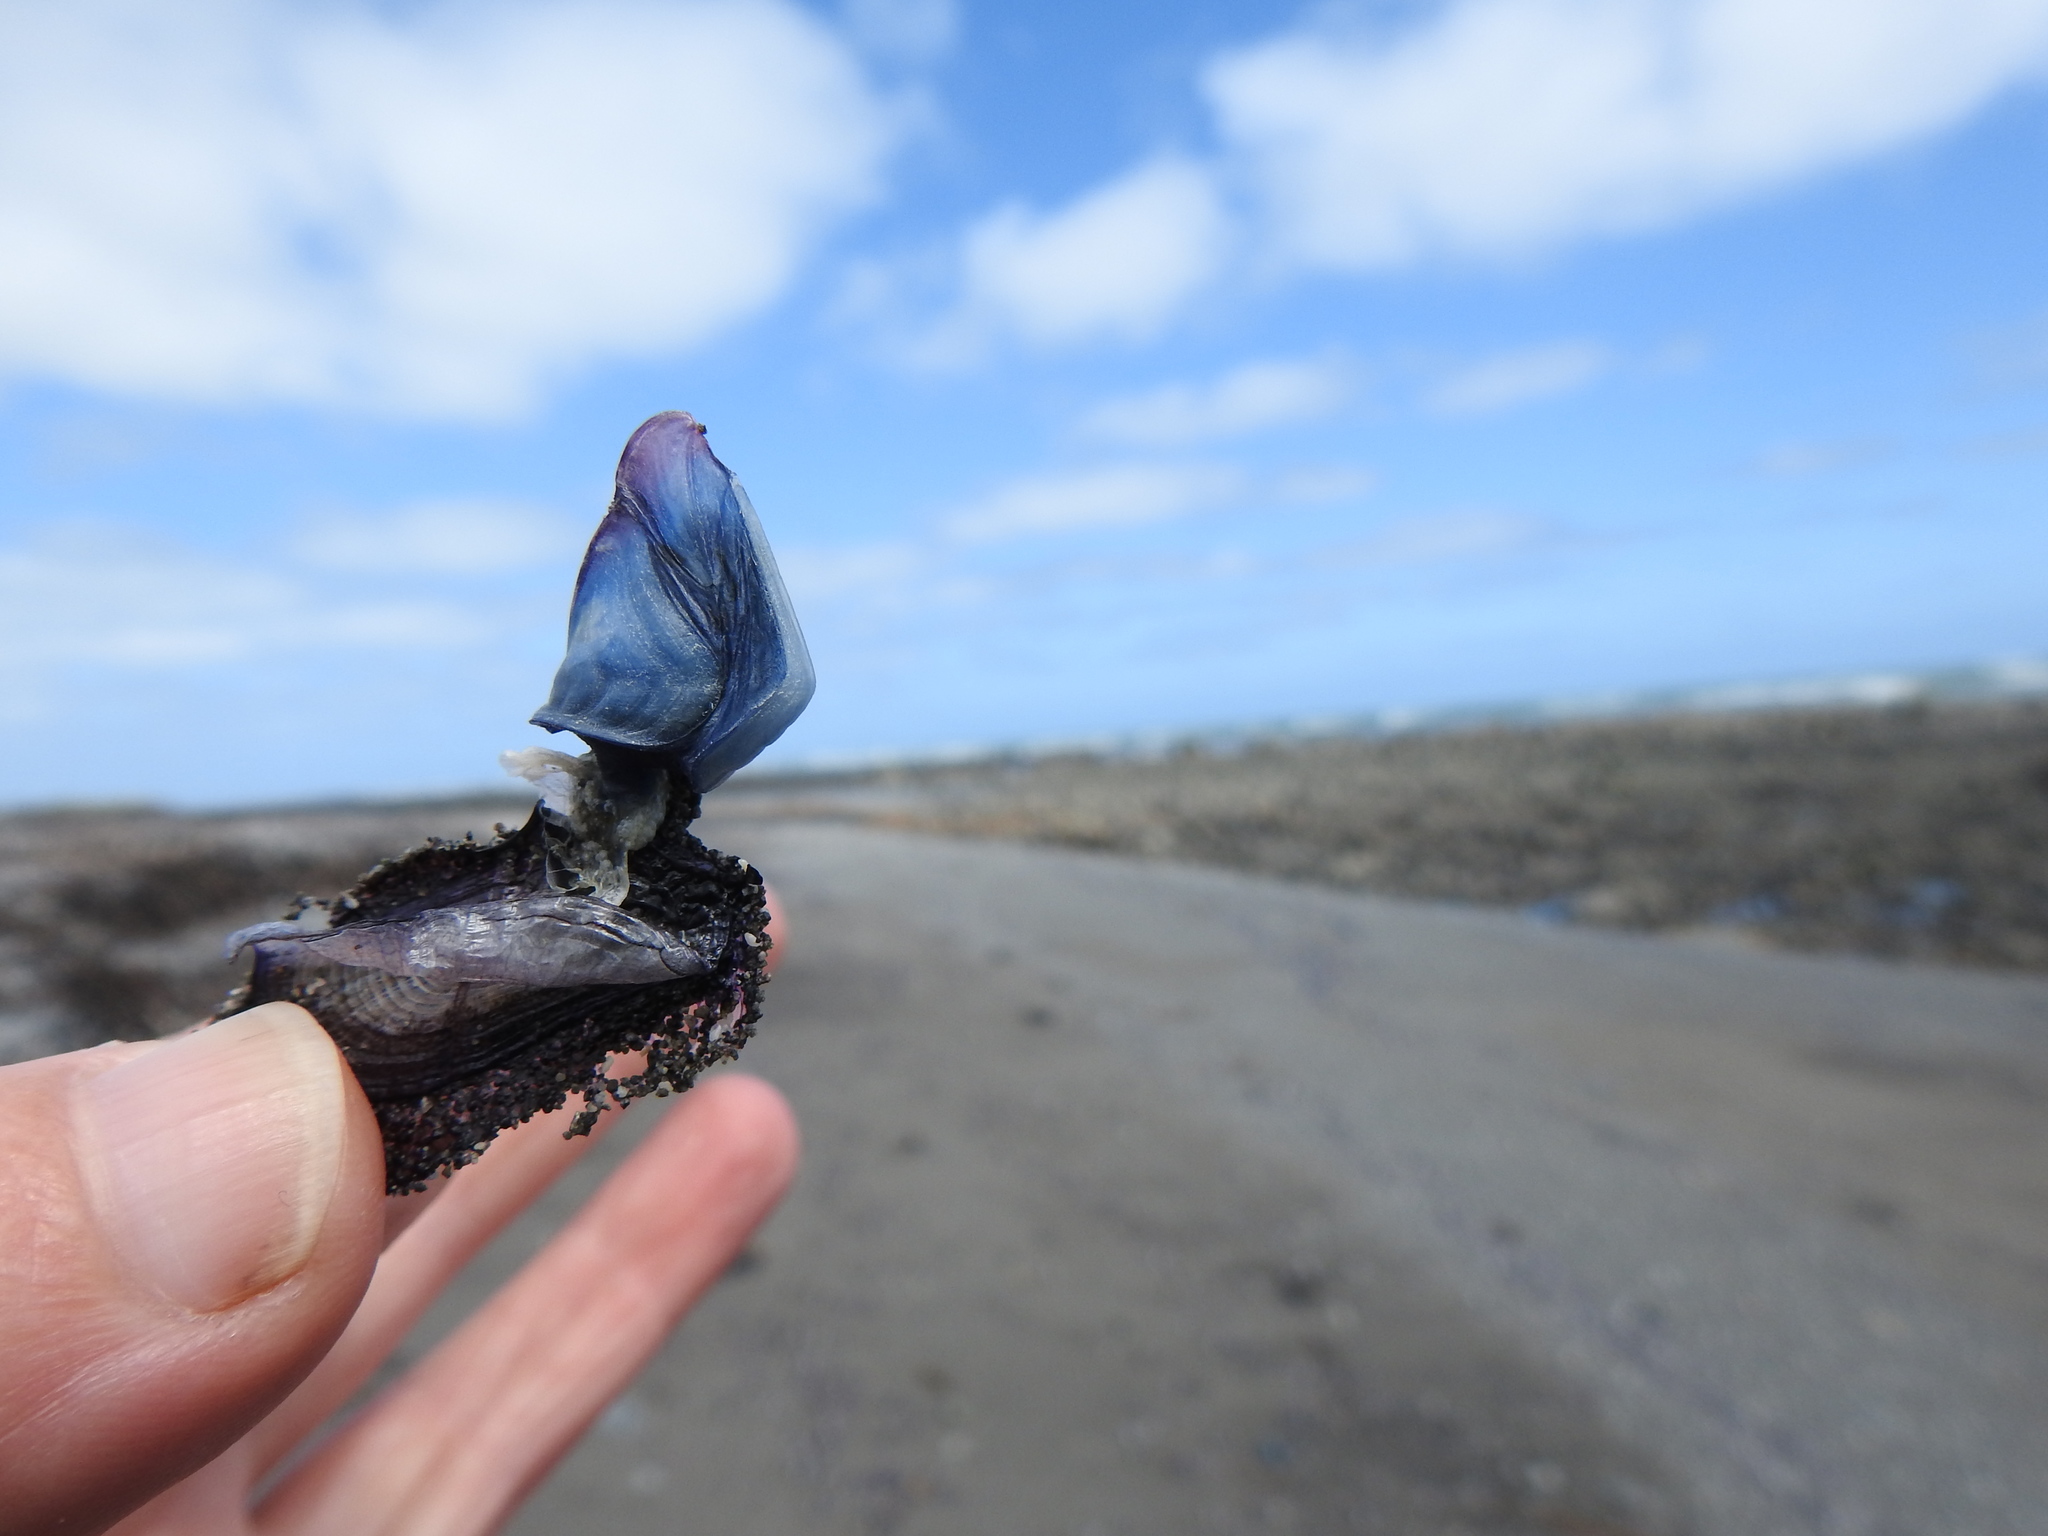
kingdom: Animalia
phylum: Arthropoda
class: Maxillopoda
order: Pedunculata
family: Lepadidae
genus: Dosima
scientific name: Dosima fascicularis
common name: Buoy barnacle
